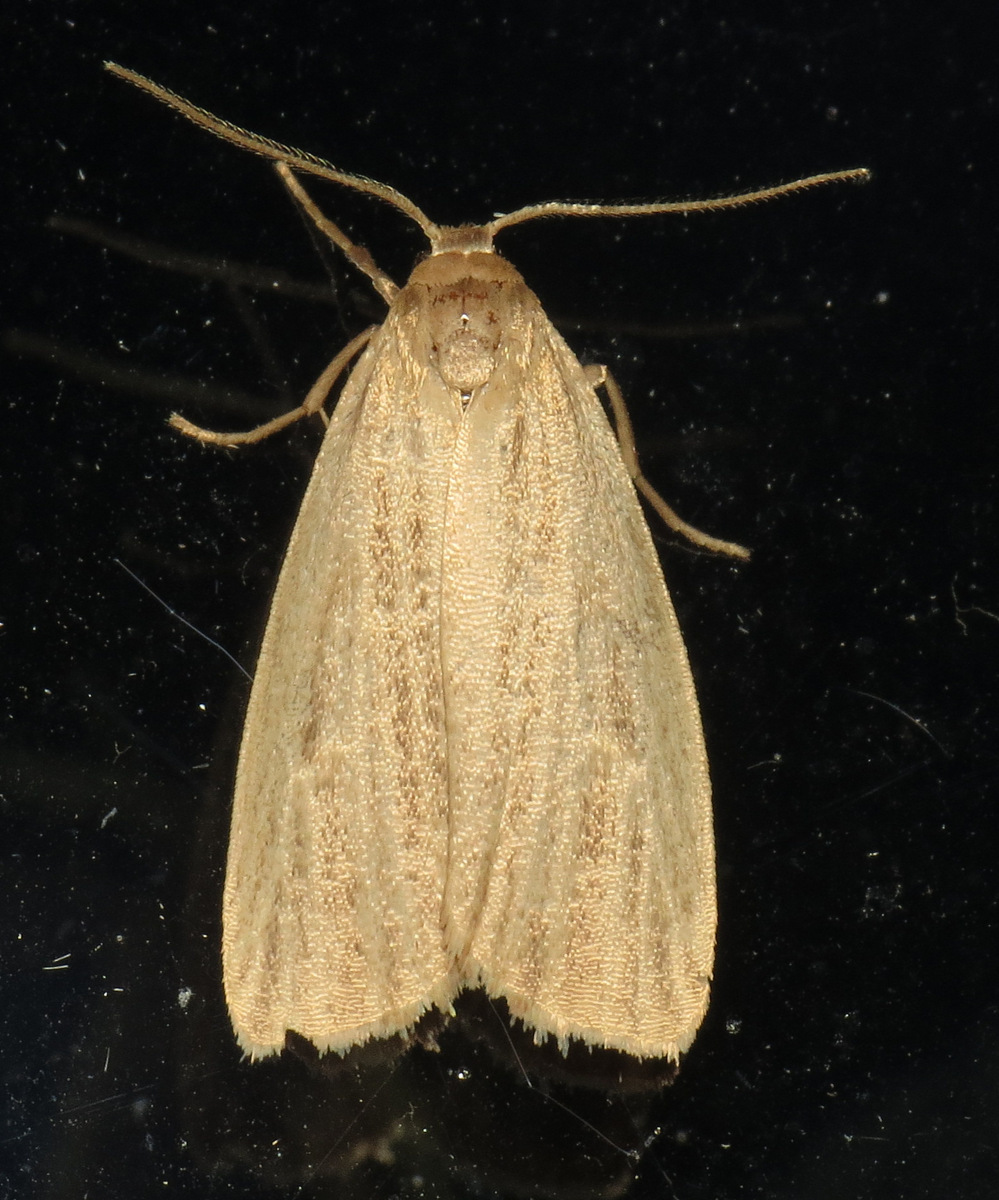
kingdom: Animalia
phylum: Arthropoda
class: Insecta
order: Lepidoptera
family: Erebidae
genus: Crambidia
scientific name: Crambidia pallida
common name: Pale lichen moth
